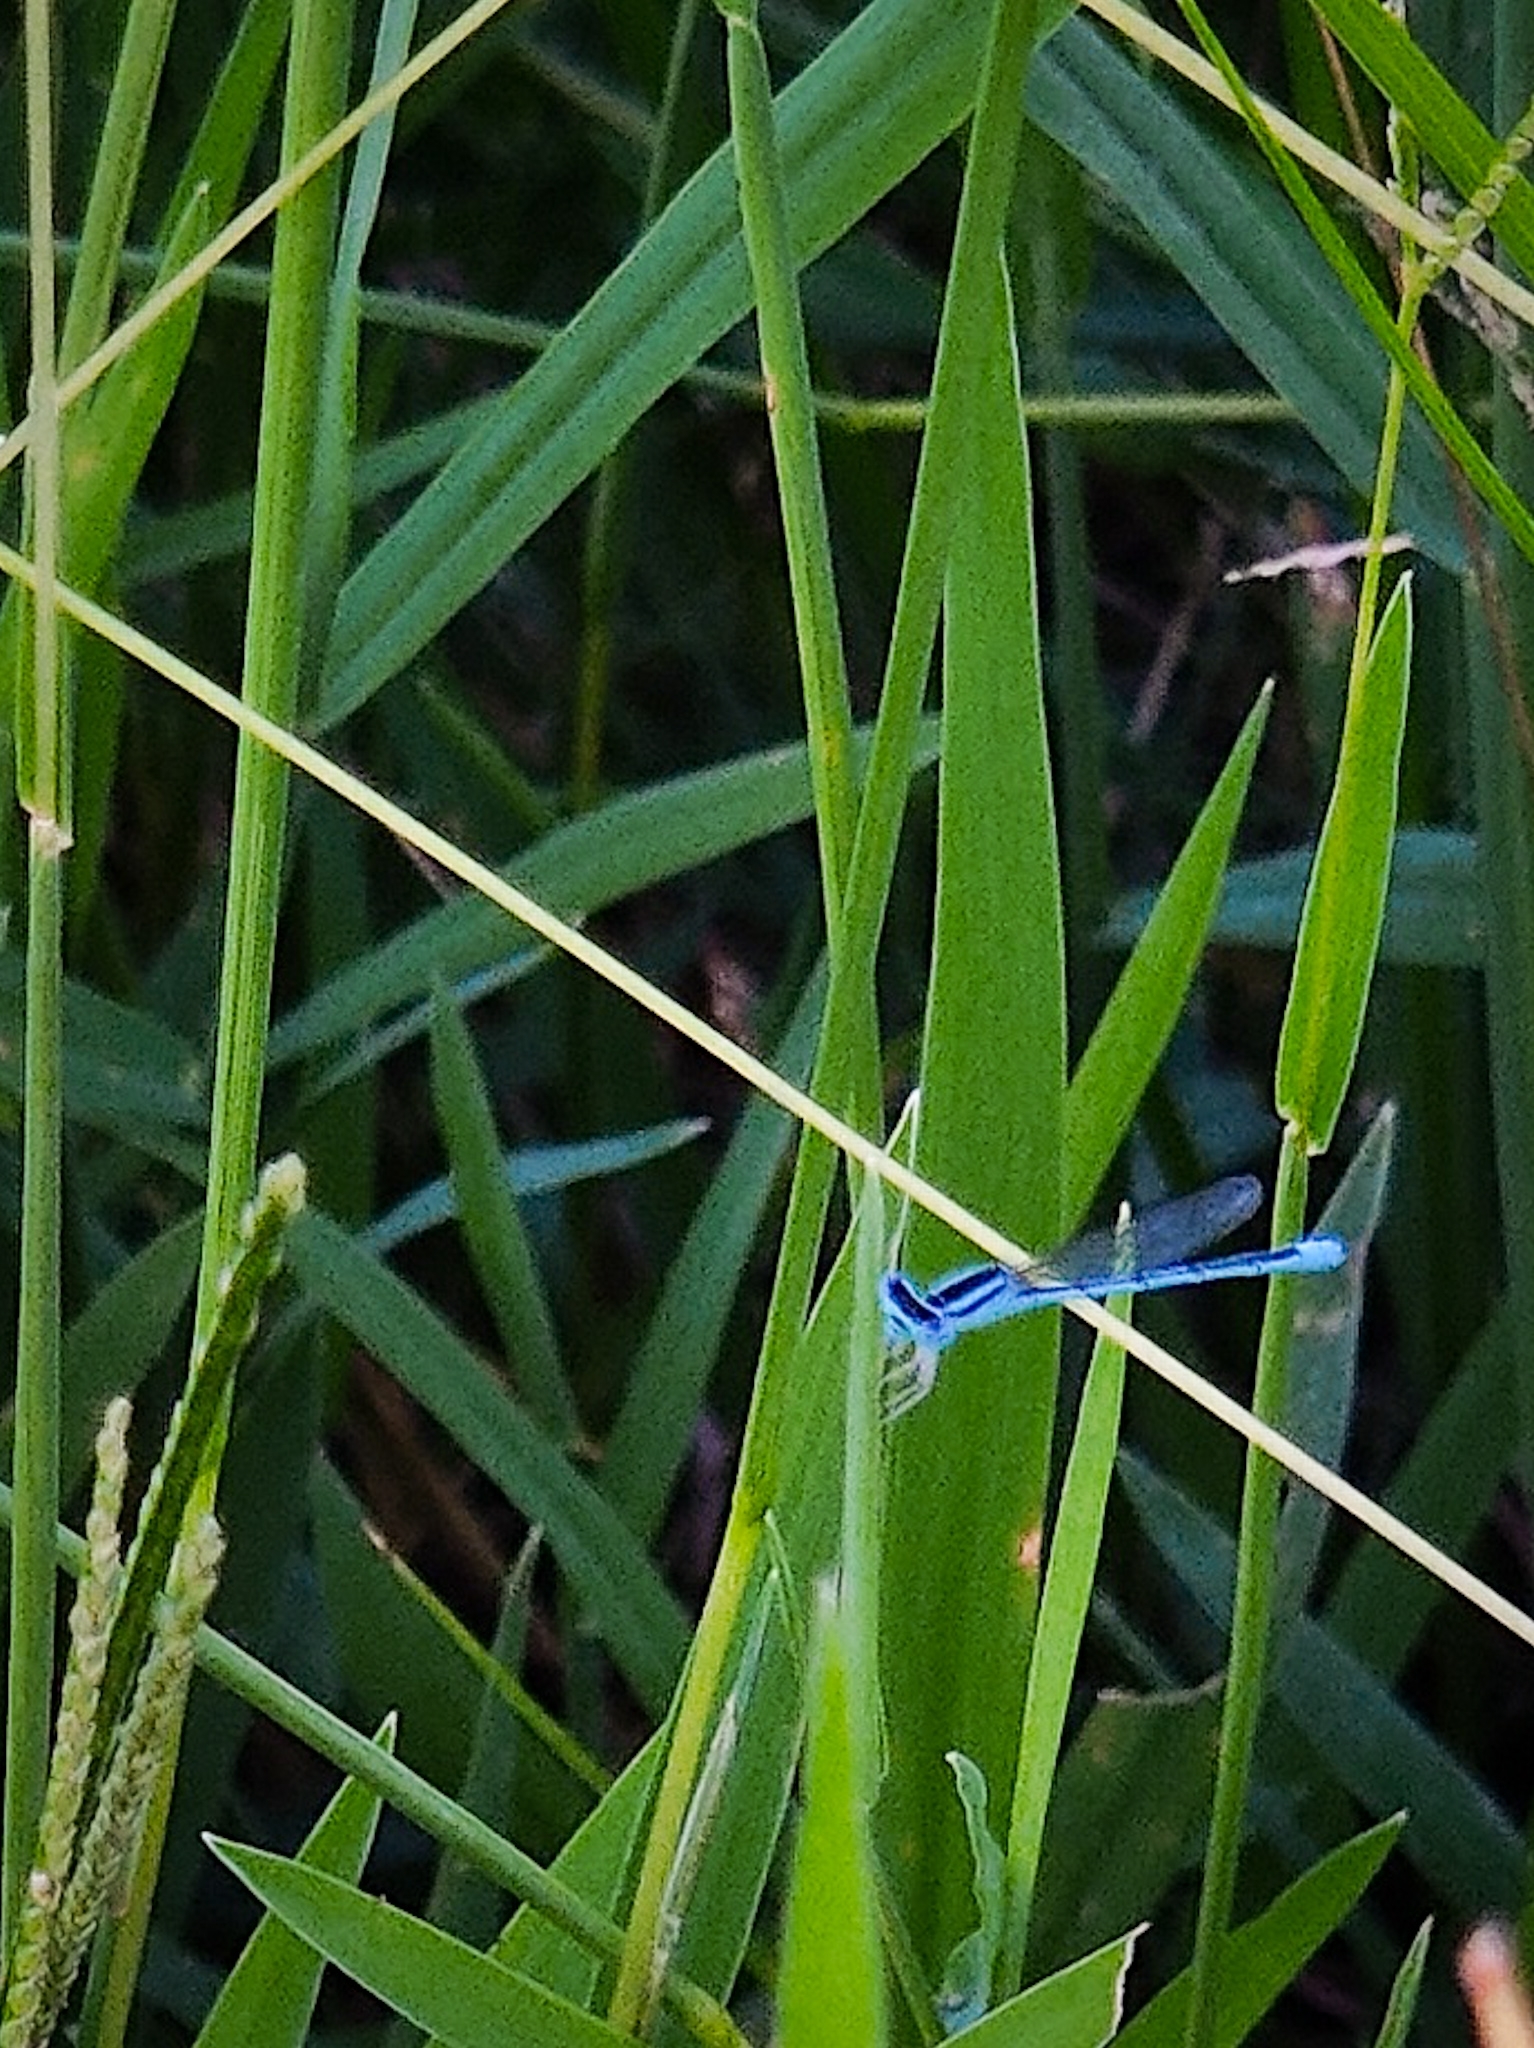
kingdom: Animalia
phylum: Arthropoda
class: Insecta
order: Odonata
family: Coenagrionidae
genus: Amphiallagma
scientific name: Amphiallagma parvum
